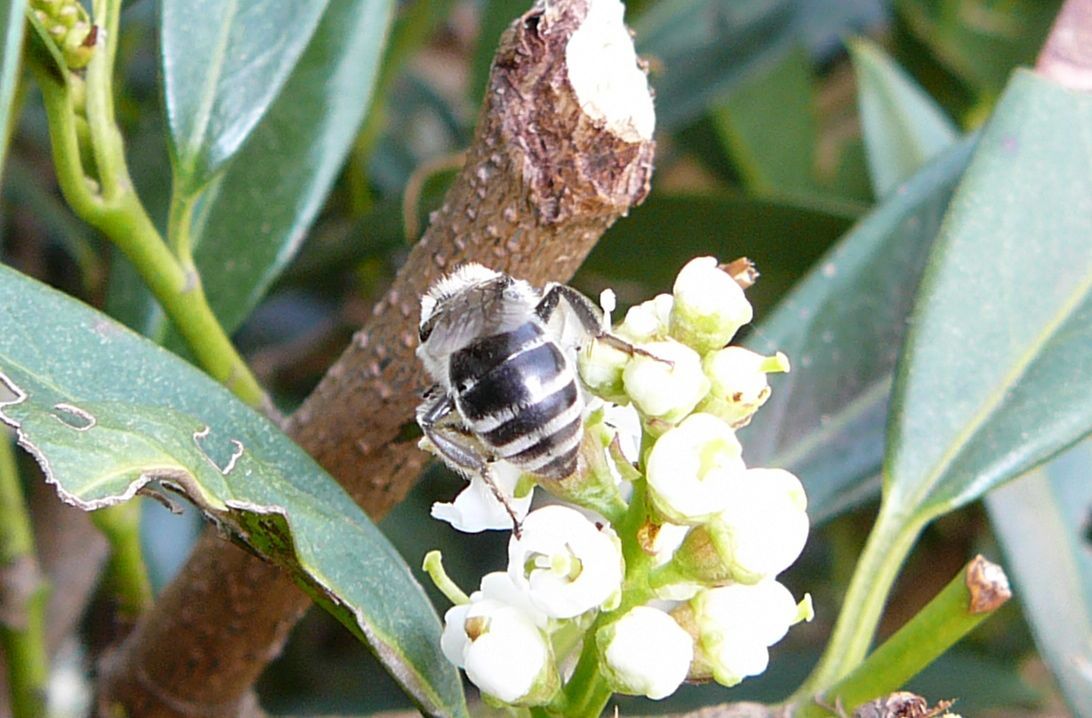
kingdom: Animalia
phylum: Arthropoda
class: Insecta
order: Hymenoptera
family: Colletidae
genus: Colletes
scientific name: Colletes inaequalis
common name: Unequal cellophane bee
